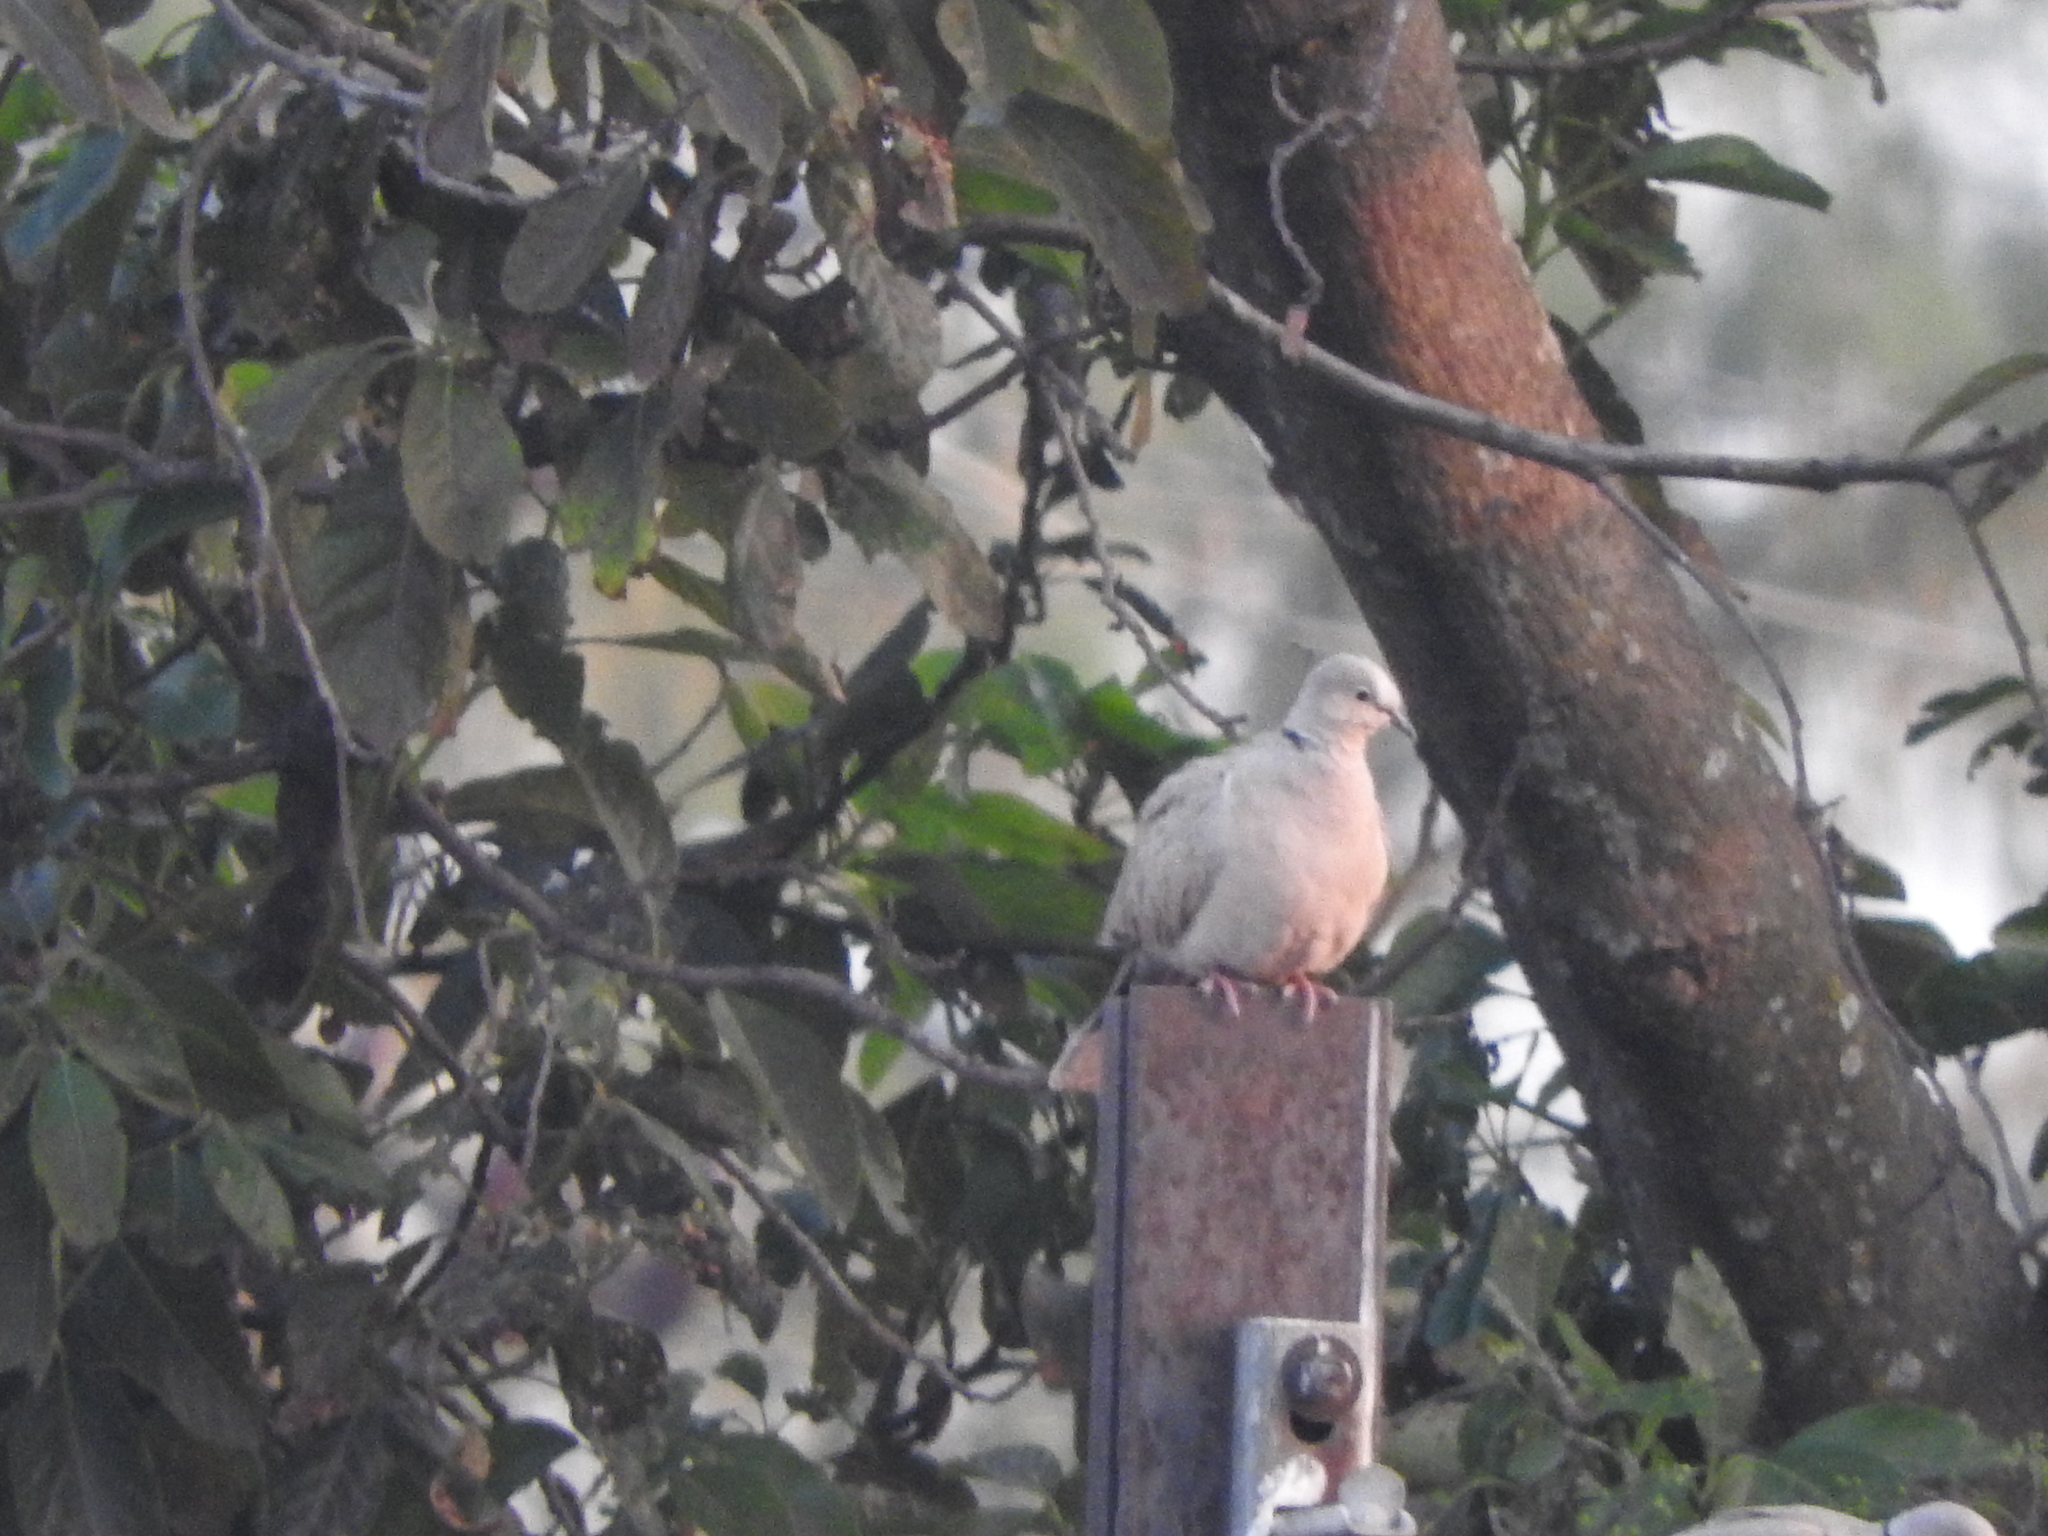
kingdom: Animalia
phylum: Chordata
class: Aves
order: Columbiformes
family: Columbidae
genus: Streptopelia
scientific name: Streptopelia decaocto
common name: Eurasian collared dove
